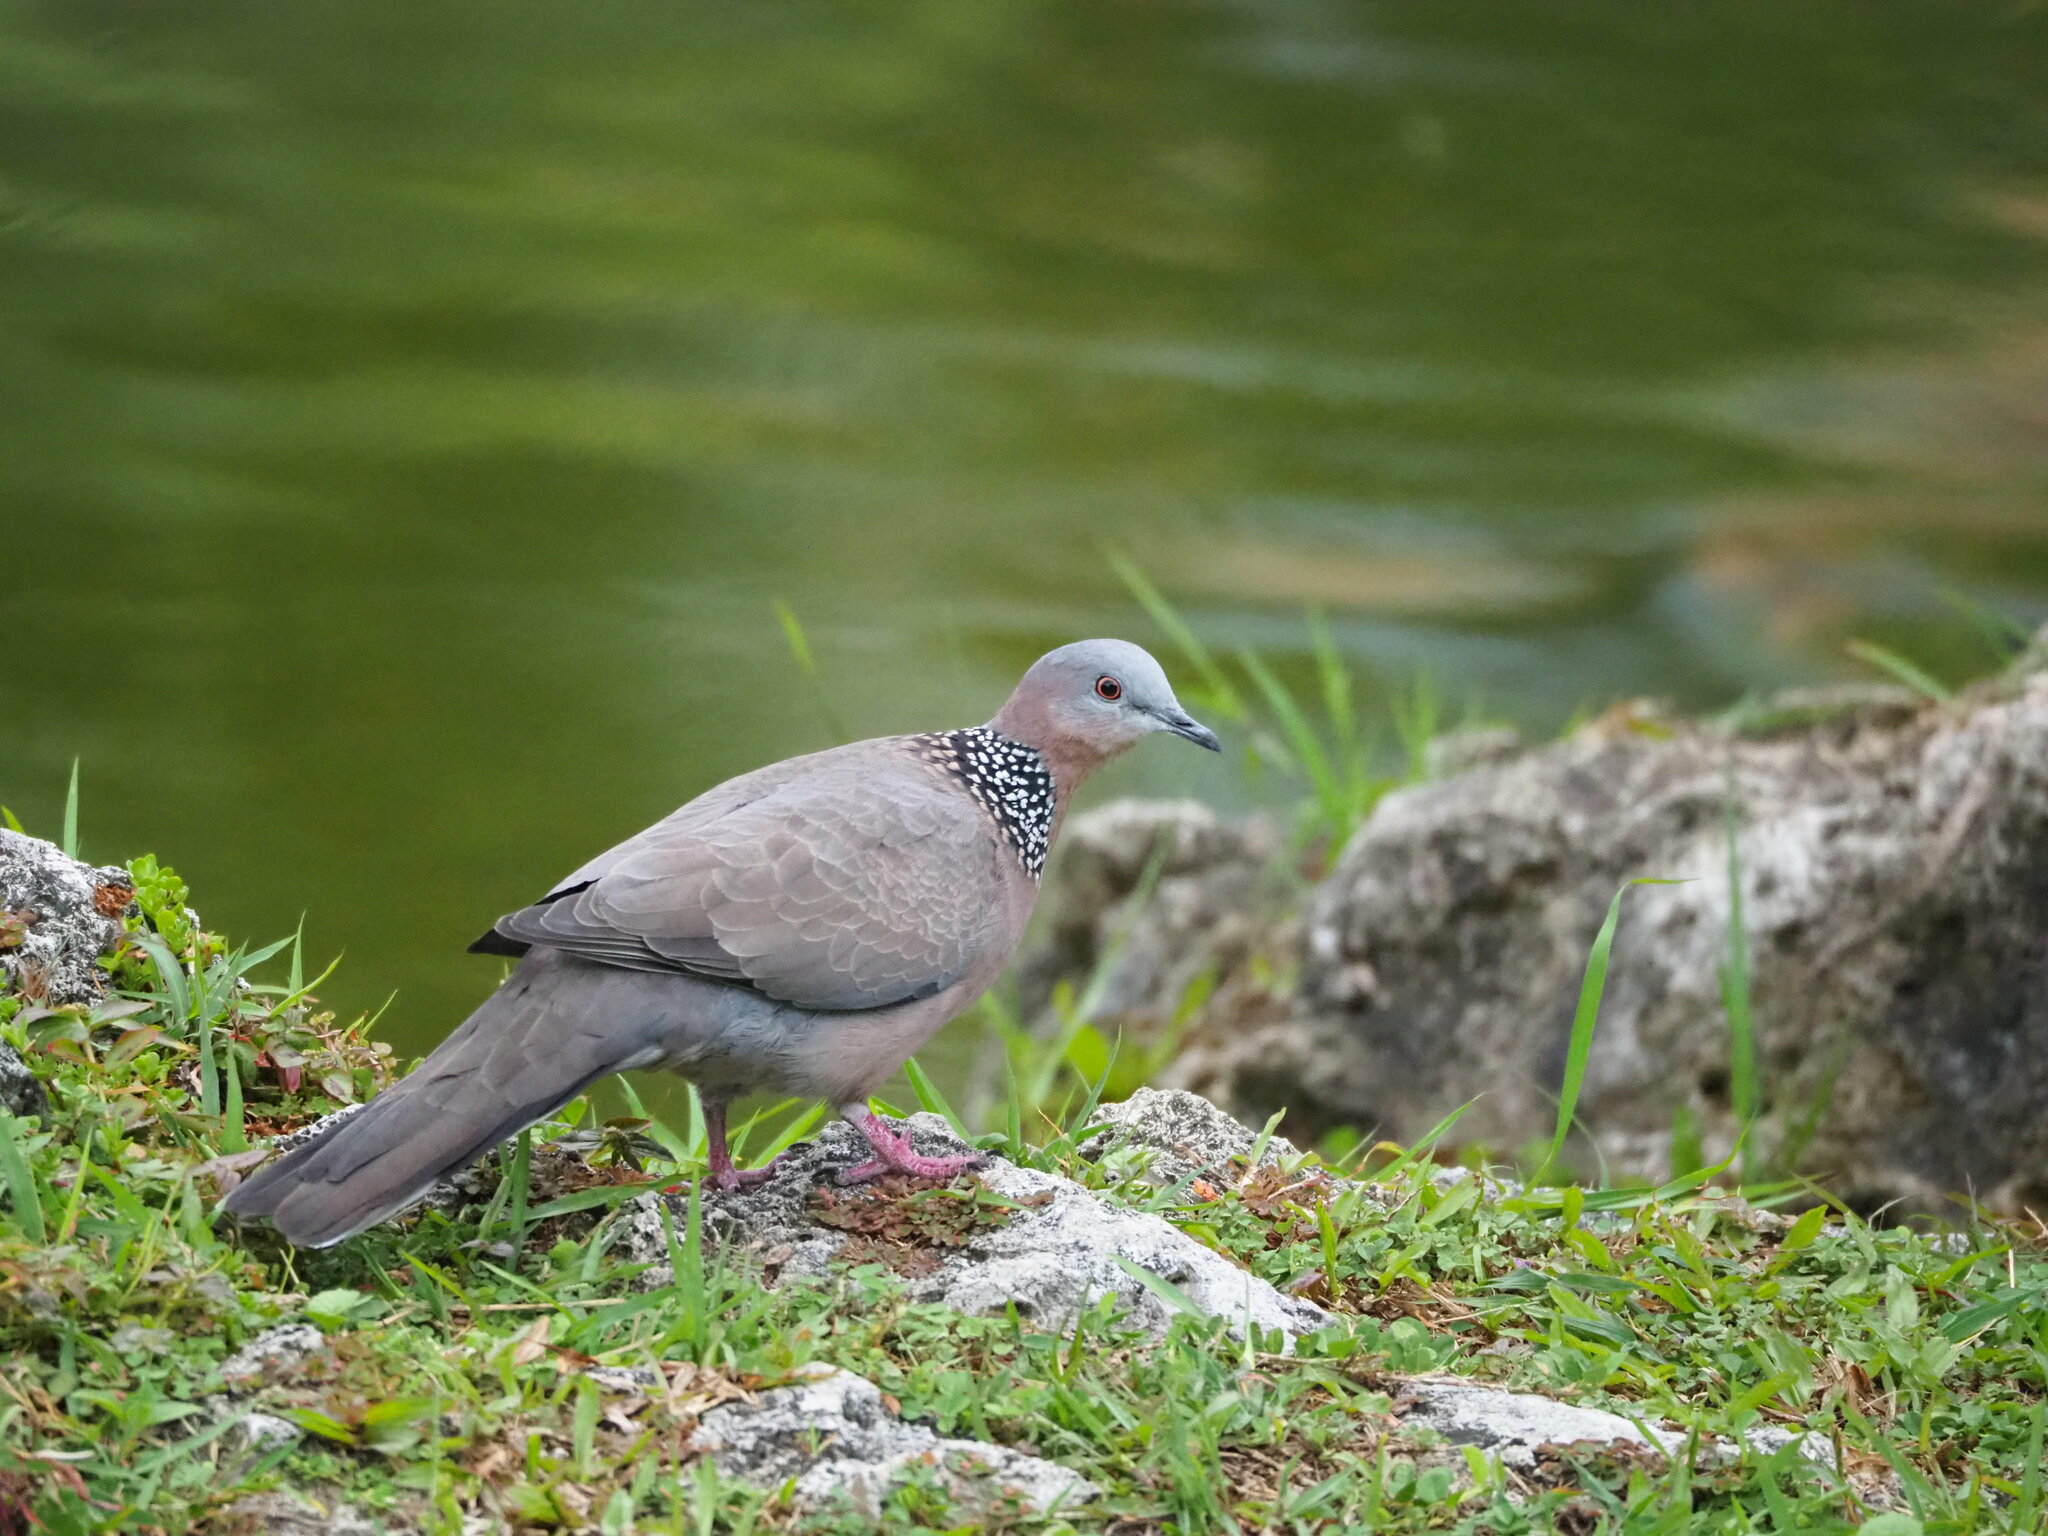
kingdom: Animalia
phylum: Chordata
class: Aves
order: Columbiformes
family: Columbidae
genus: Spilopelia
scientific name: Spilopelia chinensis
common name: Spotted dove
